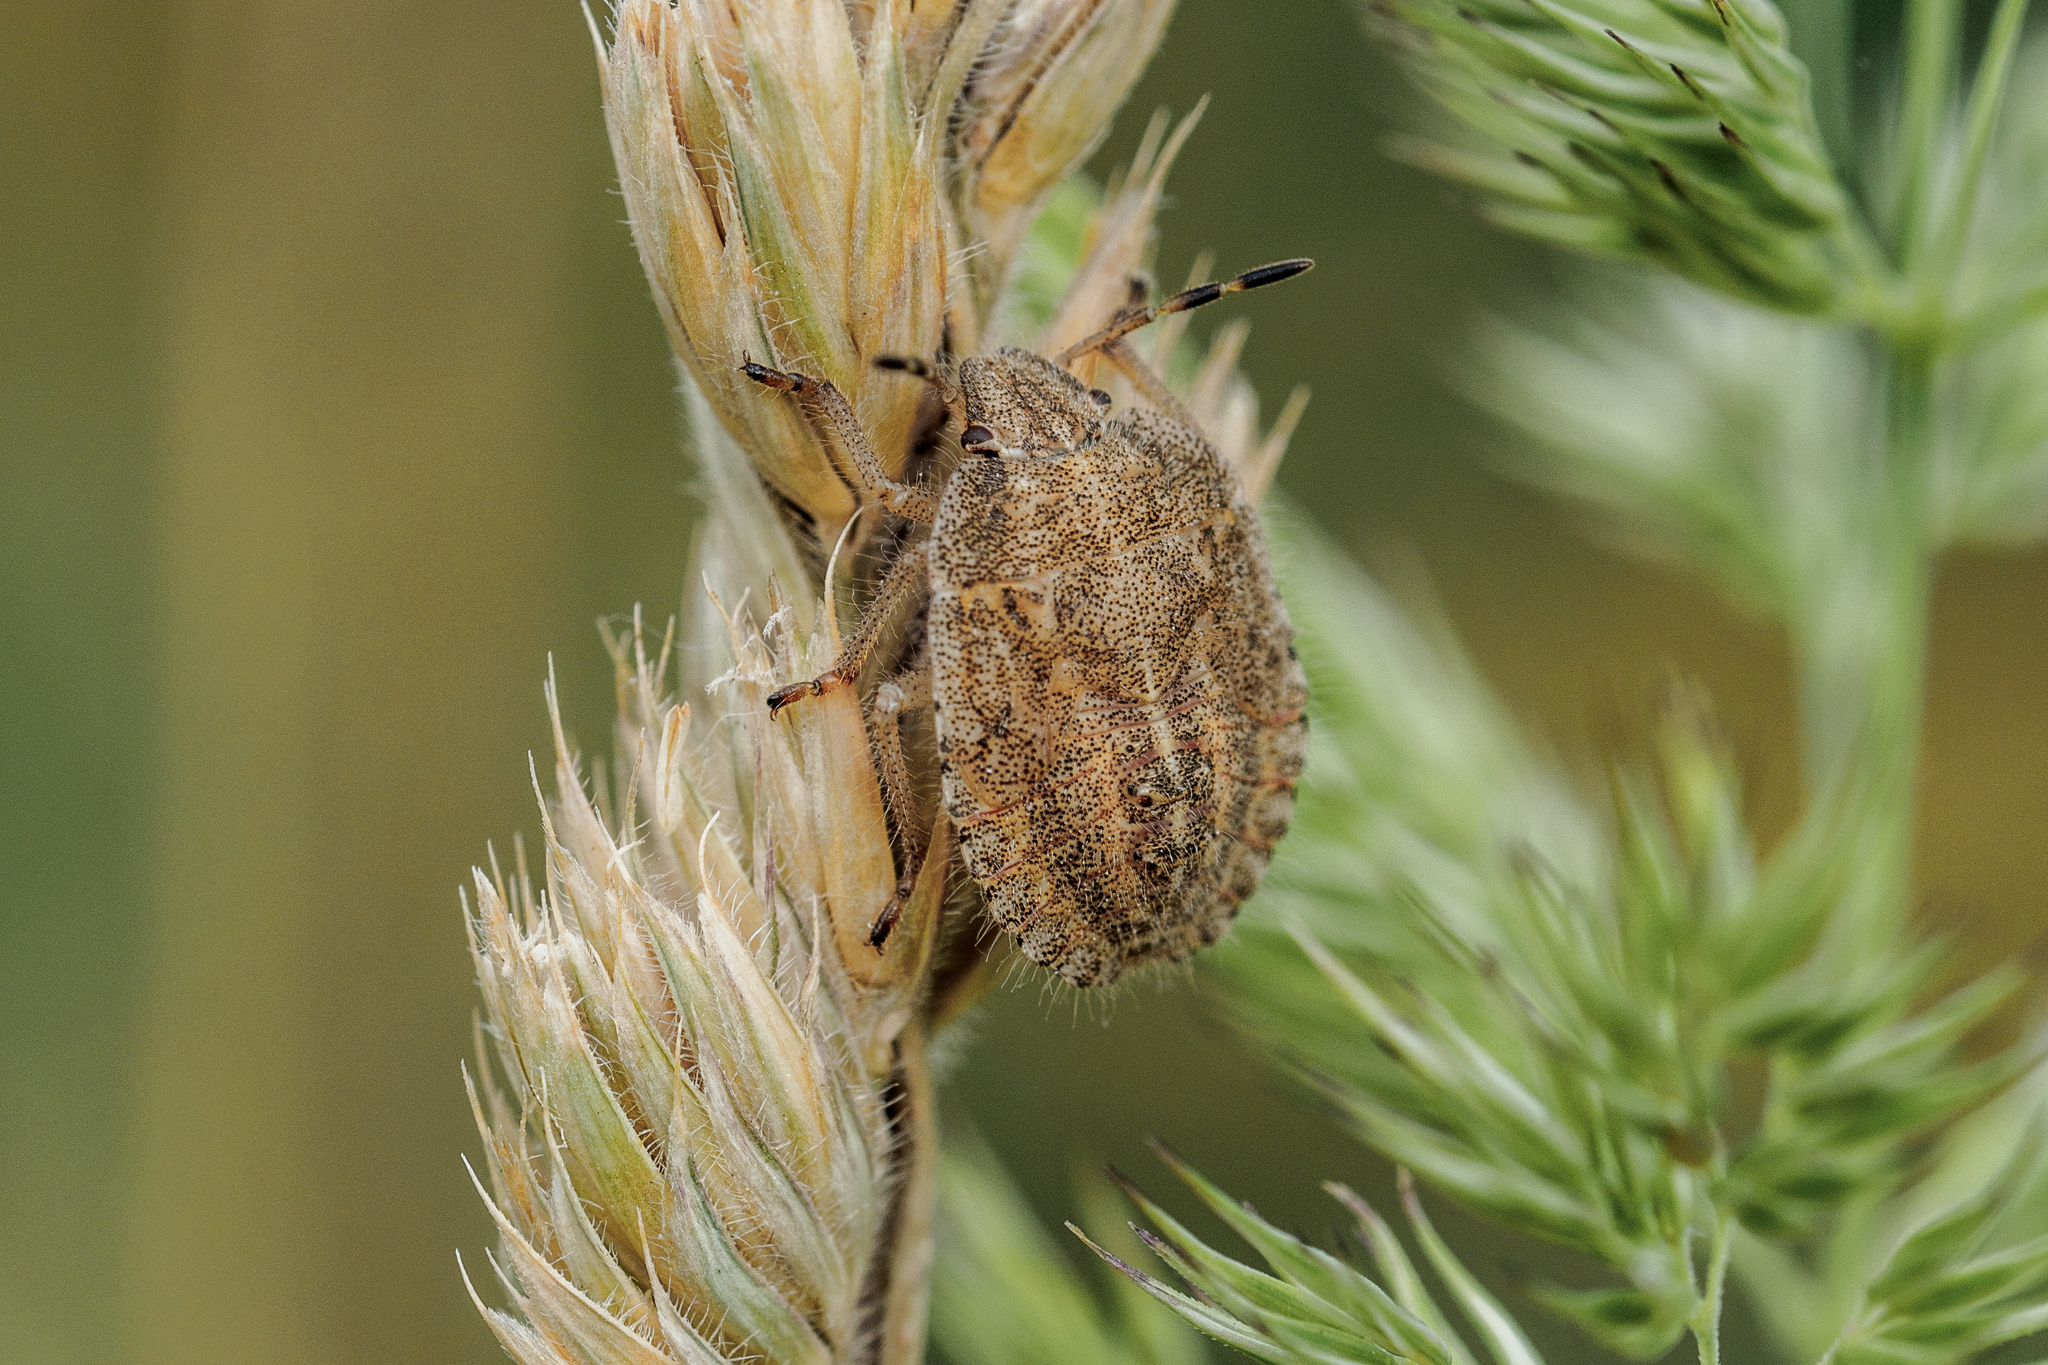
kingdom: Animalia
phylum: Arthropoda
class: Insecta
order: Hemiptera
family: Pentatomidae
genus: Dolycoris
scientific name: Dolycoris baccarum
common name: Sloe bug
